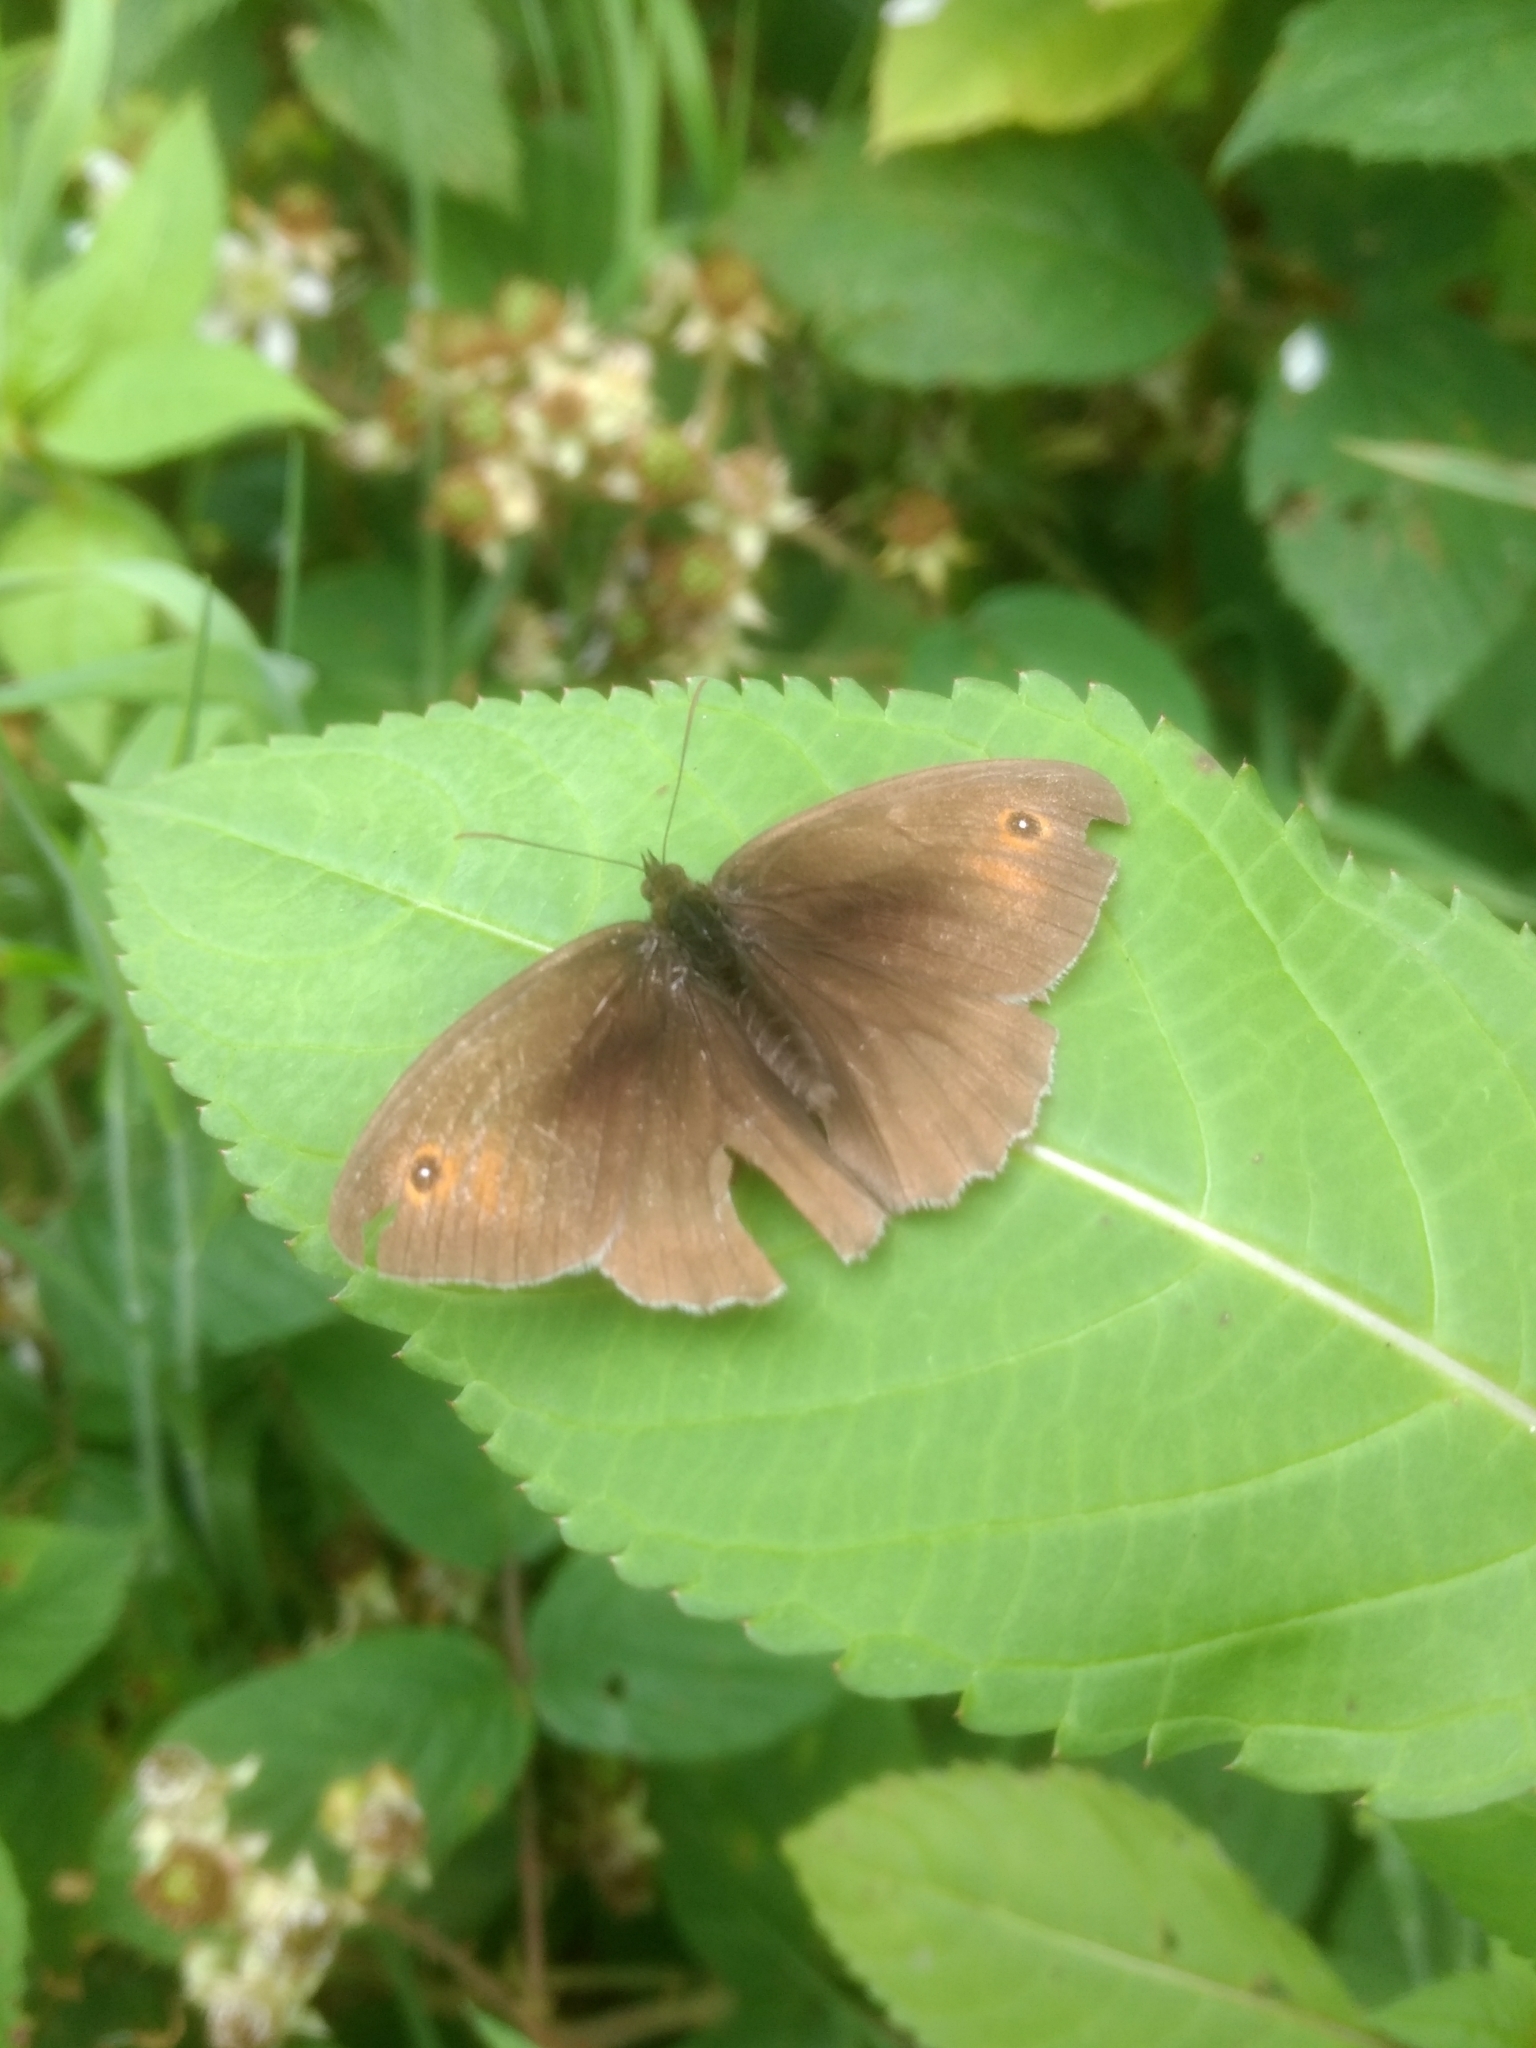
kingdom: Animalia
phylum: Arthropoda
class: Insecta
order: Lepidoptera
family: Nymphalidae
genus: Maniola
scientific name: Maniola jurtina
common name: Meadow brown
